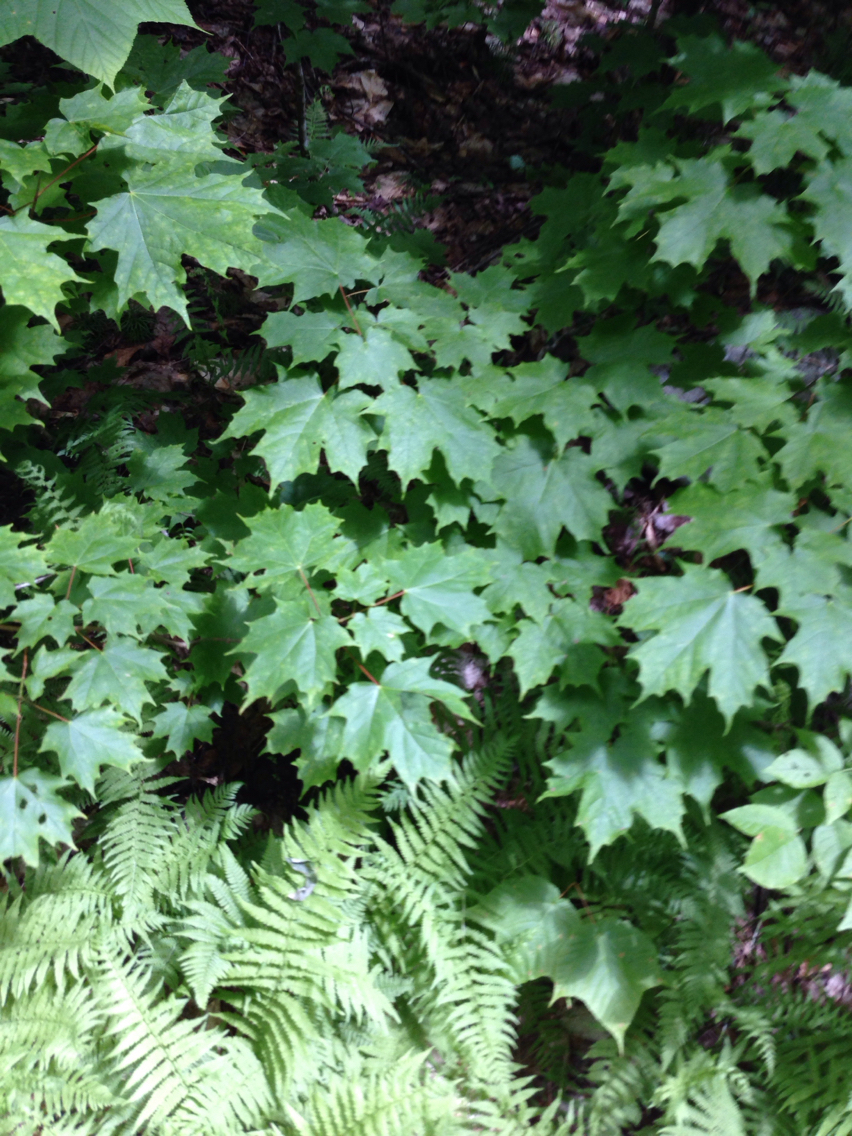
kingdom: Plantae
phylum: Tracheophyta
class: Magnoliopsida
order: Sapindales
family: Sapindaceae
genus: Acer
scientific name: Acer saccharum
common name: Sugar maple
